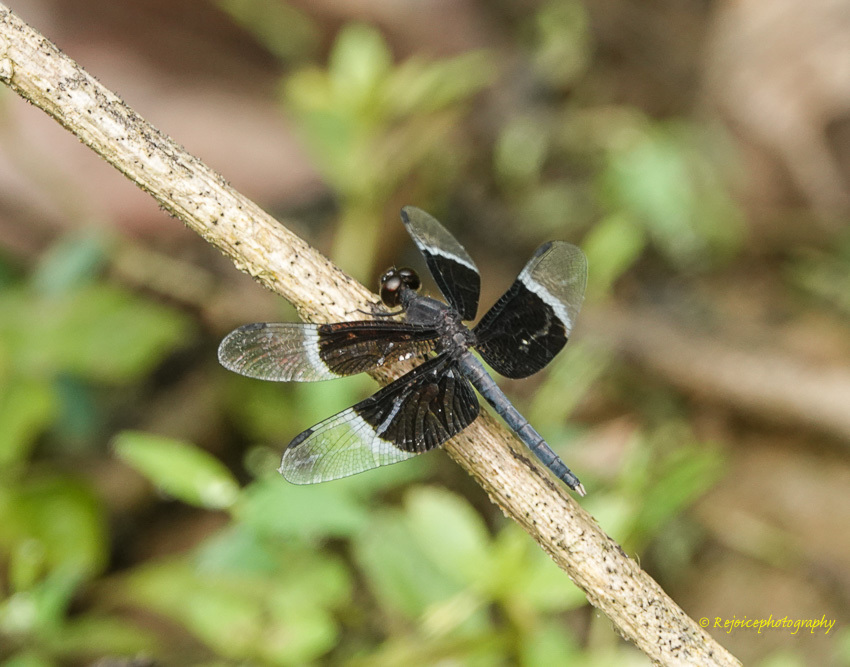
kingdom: Animalia
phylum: Arthropoda
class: Insecta
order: Odonata
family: Libellulidae
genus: Neurothemis
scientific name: Neurothemis tullia
